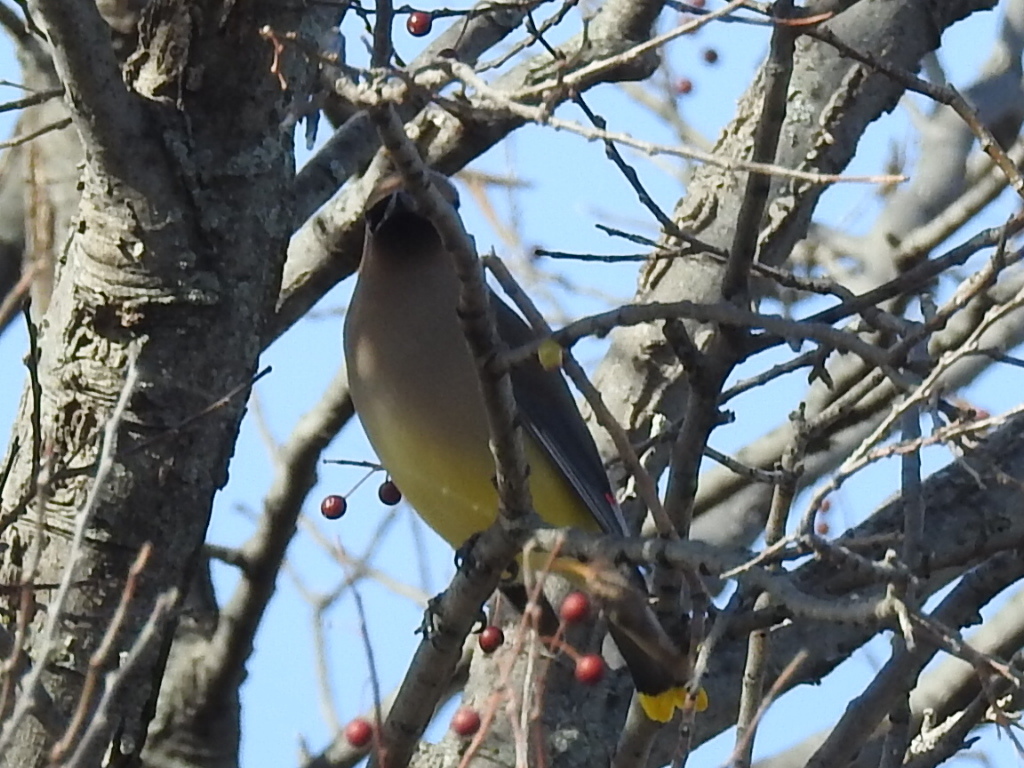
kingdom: Animalia
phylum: Chordata
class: Aves
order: Passeriformes
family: Bombycillidae
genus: Bombycilla
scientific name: Bombycilla cedrorum
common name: Cedar waxwing
